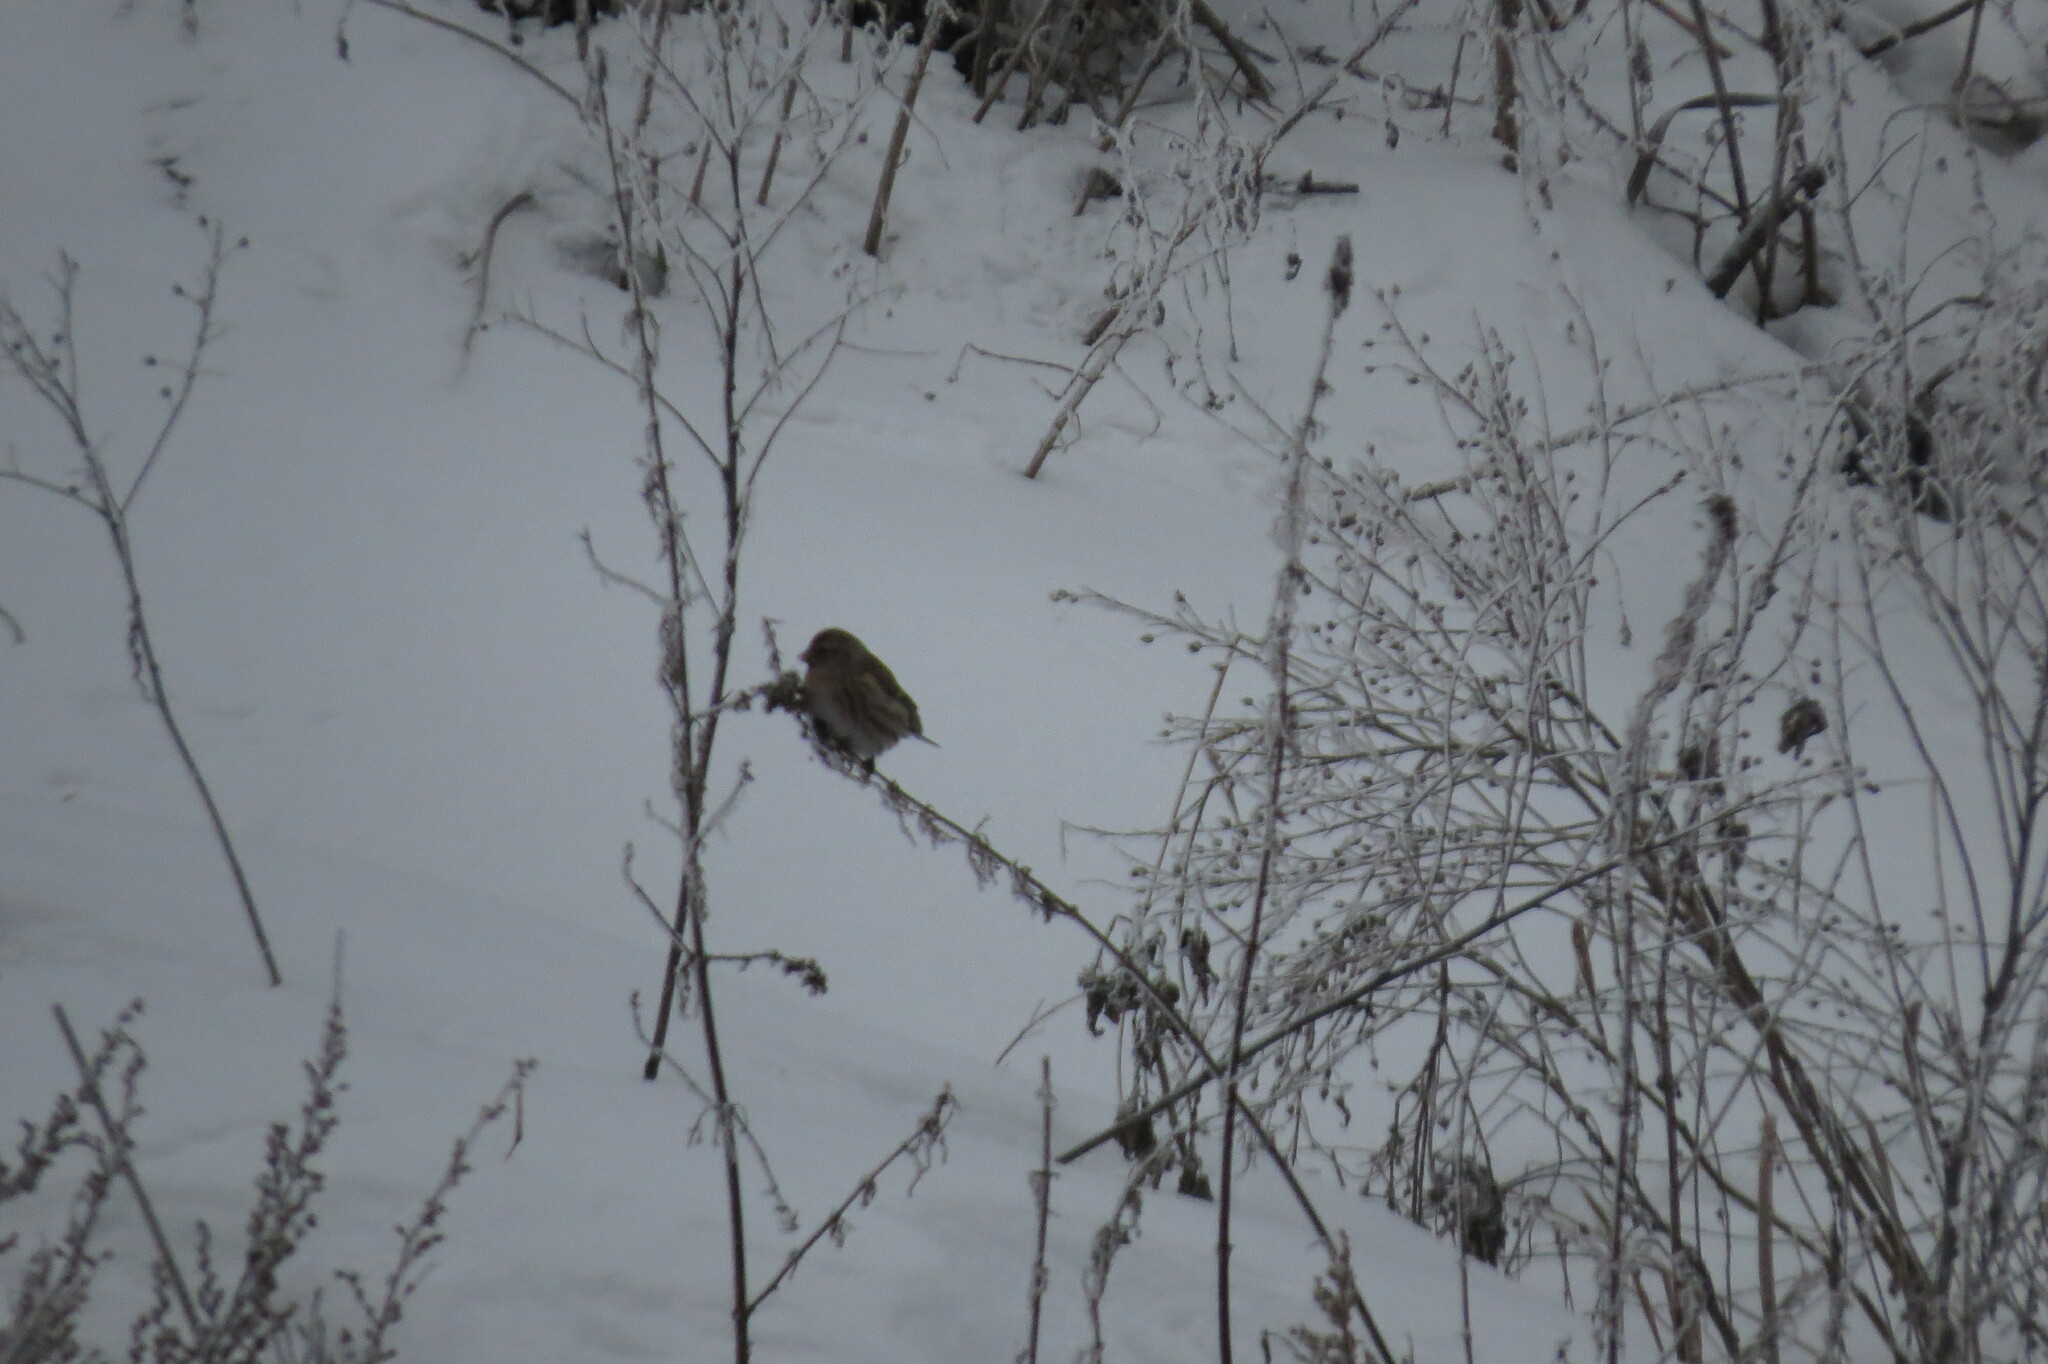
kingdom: Animalia
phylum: Chordata
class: Aves
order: Passeriformes
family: Fringillidae
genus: Acanthis
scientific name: Acanthis flammea
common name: Common redpoll
